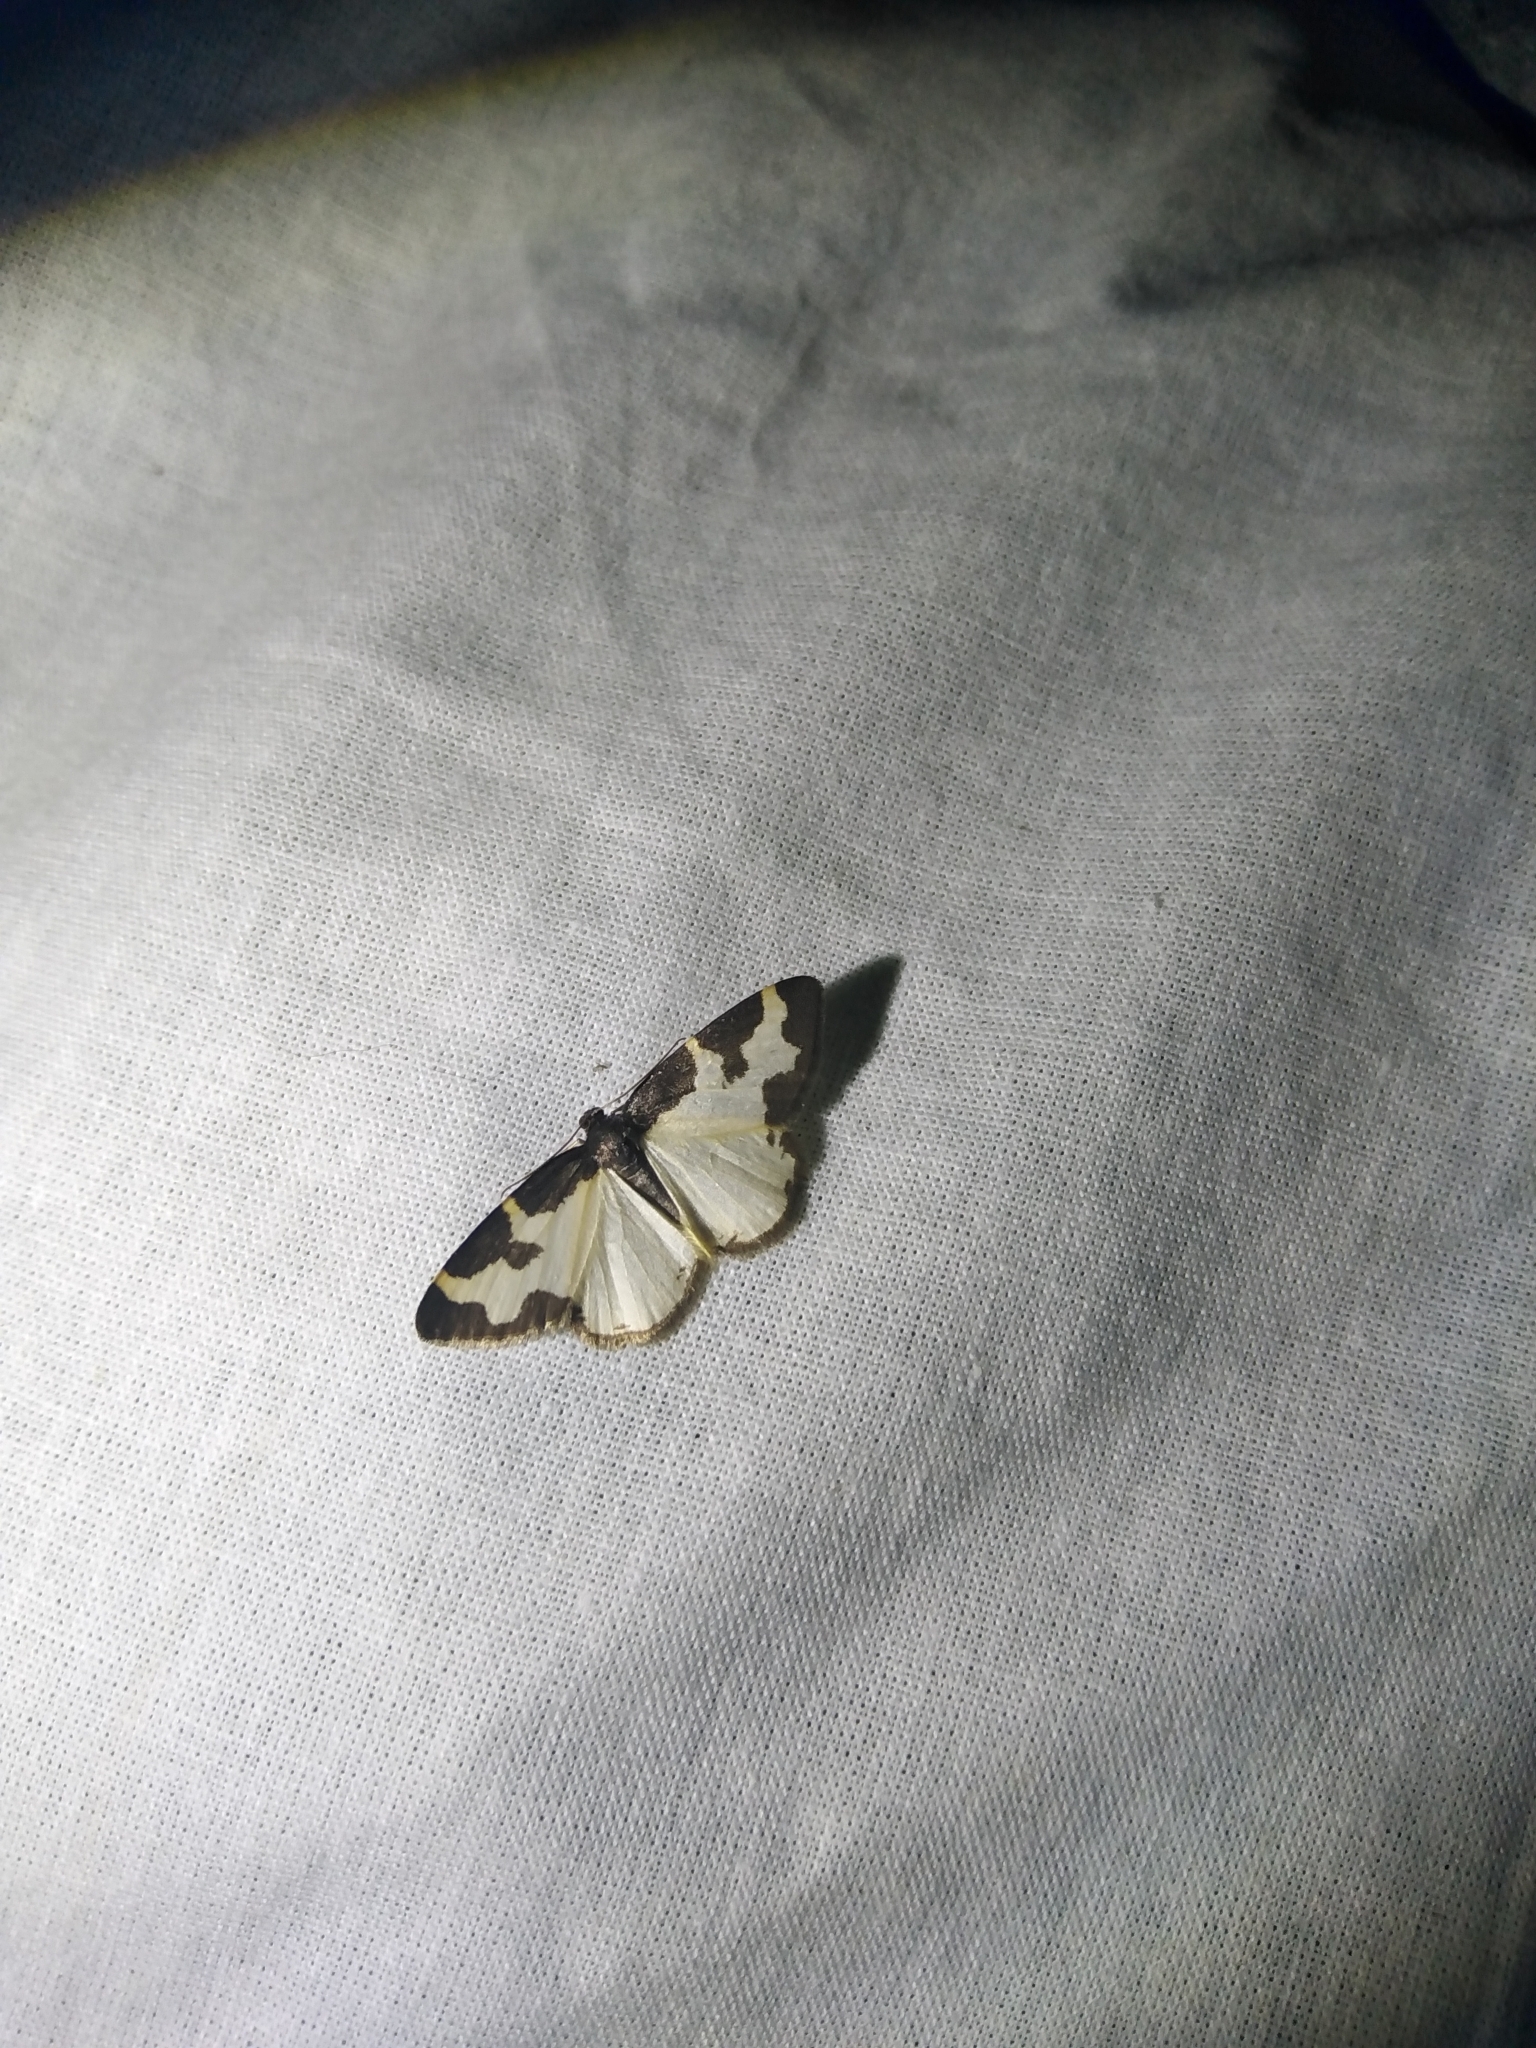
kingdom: Animalia
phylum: Arthropoda
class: Insecta
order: Lepidoptera
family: Geometridae
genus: Lomaspilis
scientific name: Lomaspilis marginata
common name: Clouded border
